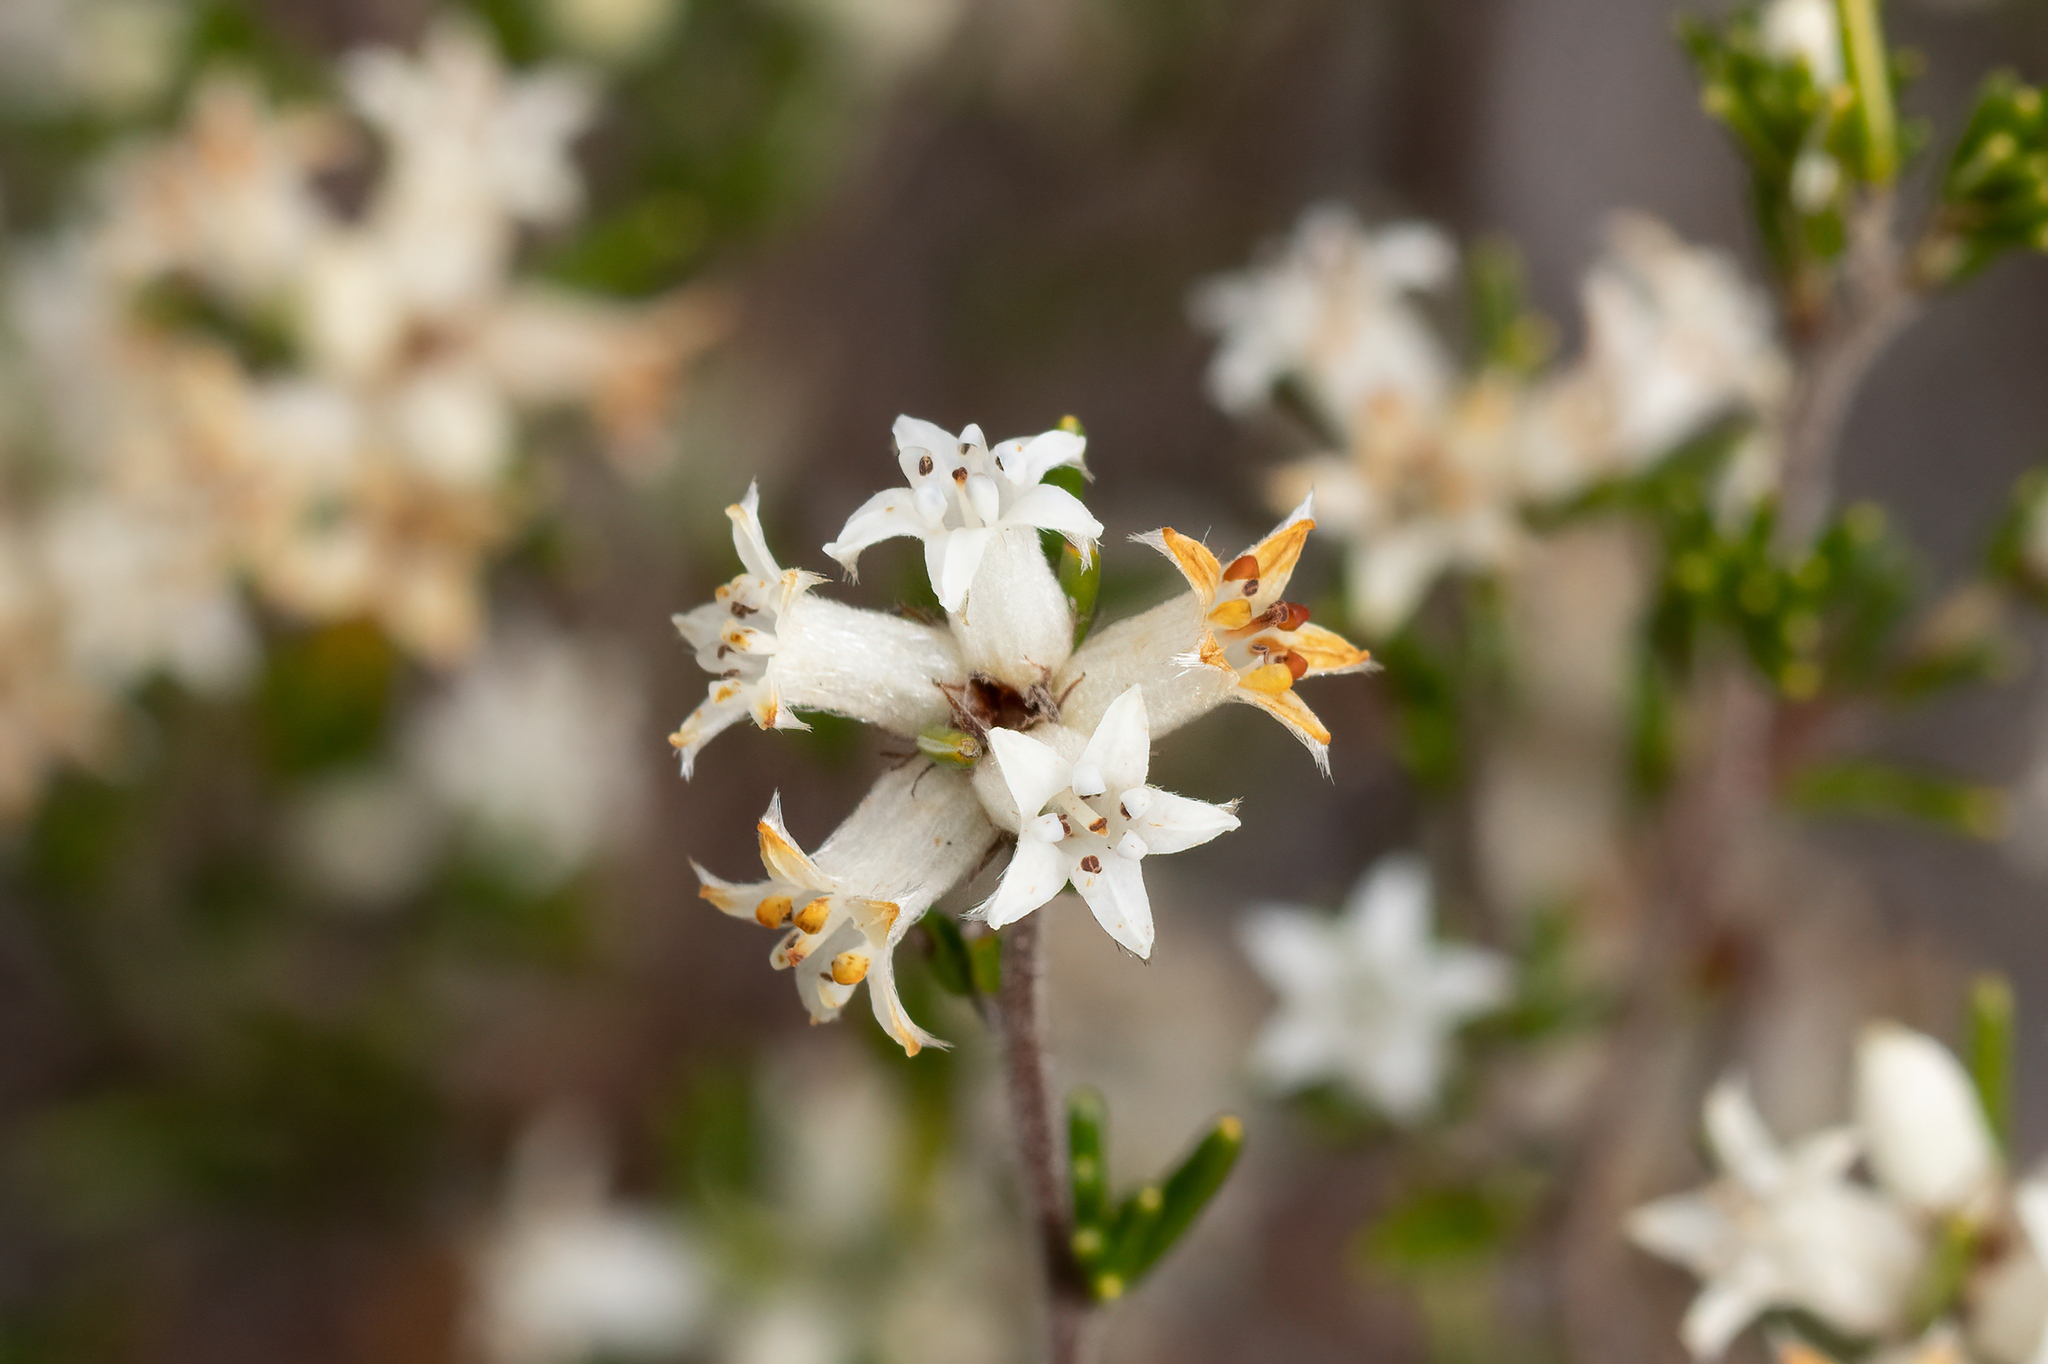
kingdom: Plantae
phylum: Tracheophyta
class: Magnoliopsida
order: Rosales
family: Rhamnaceae
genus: Cryptandra
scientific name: Cryptandra hispidula
